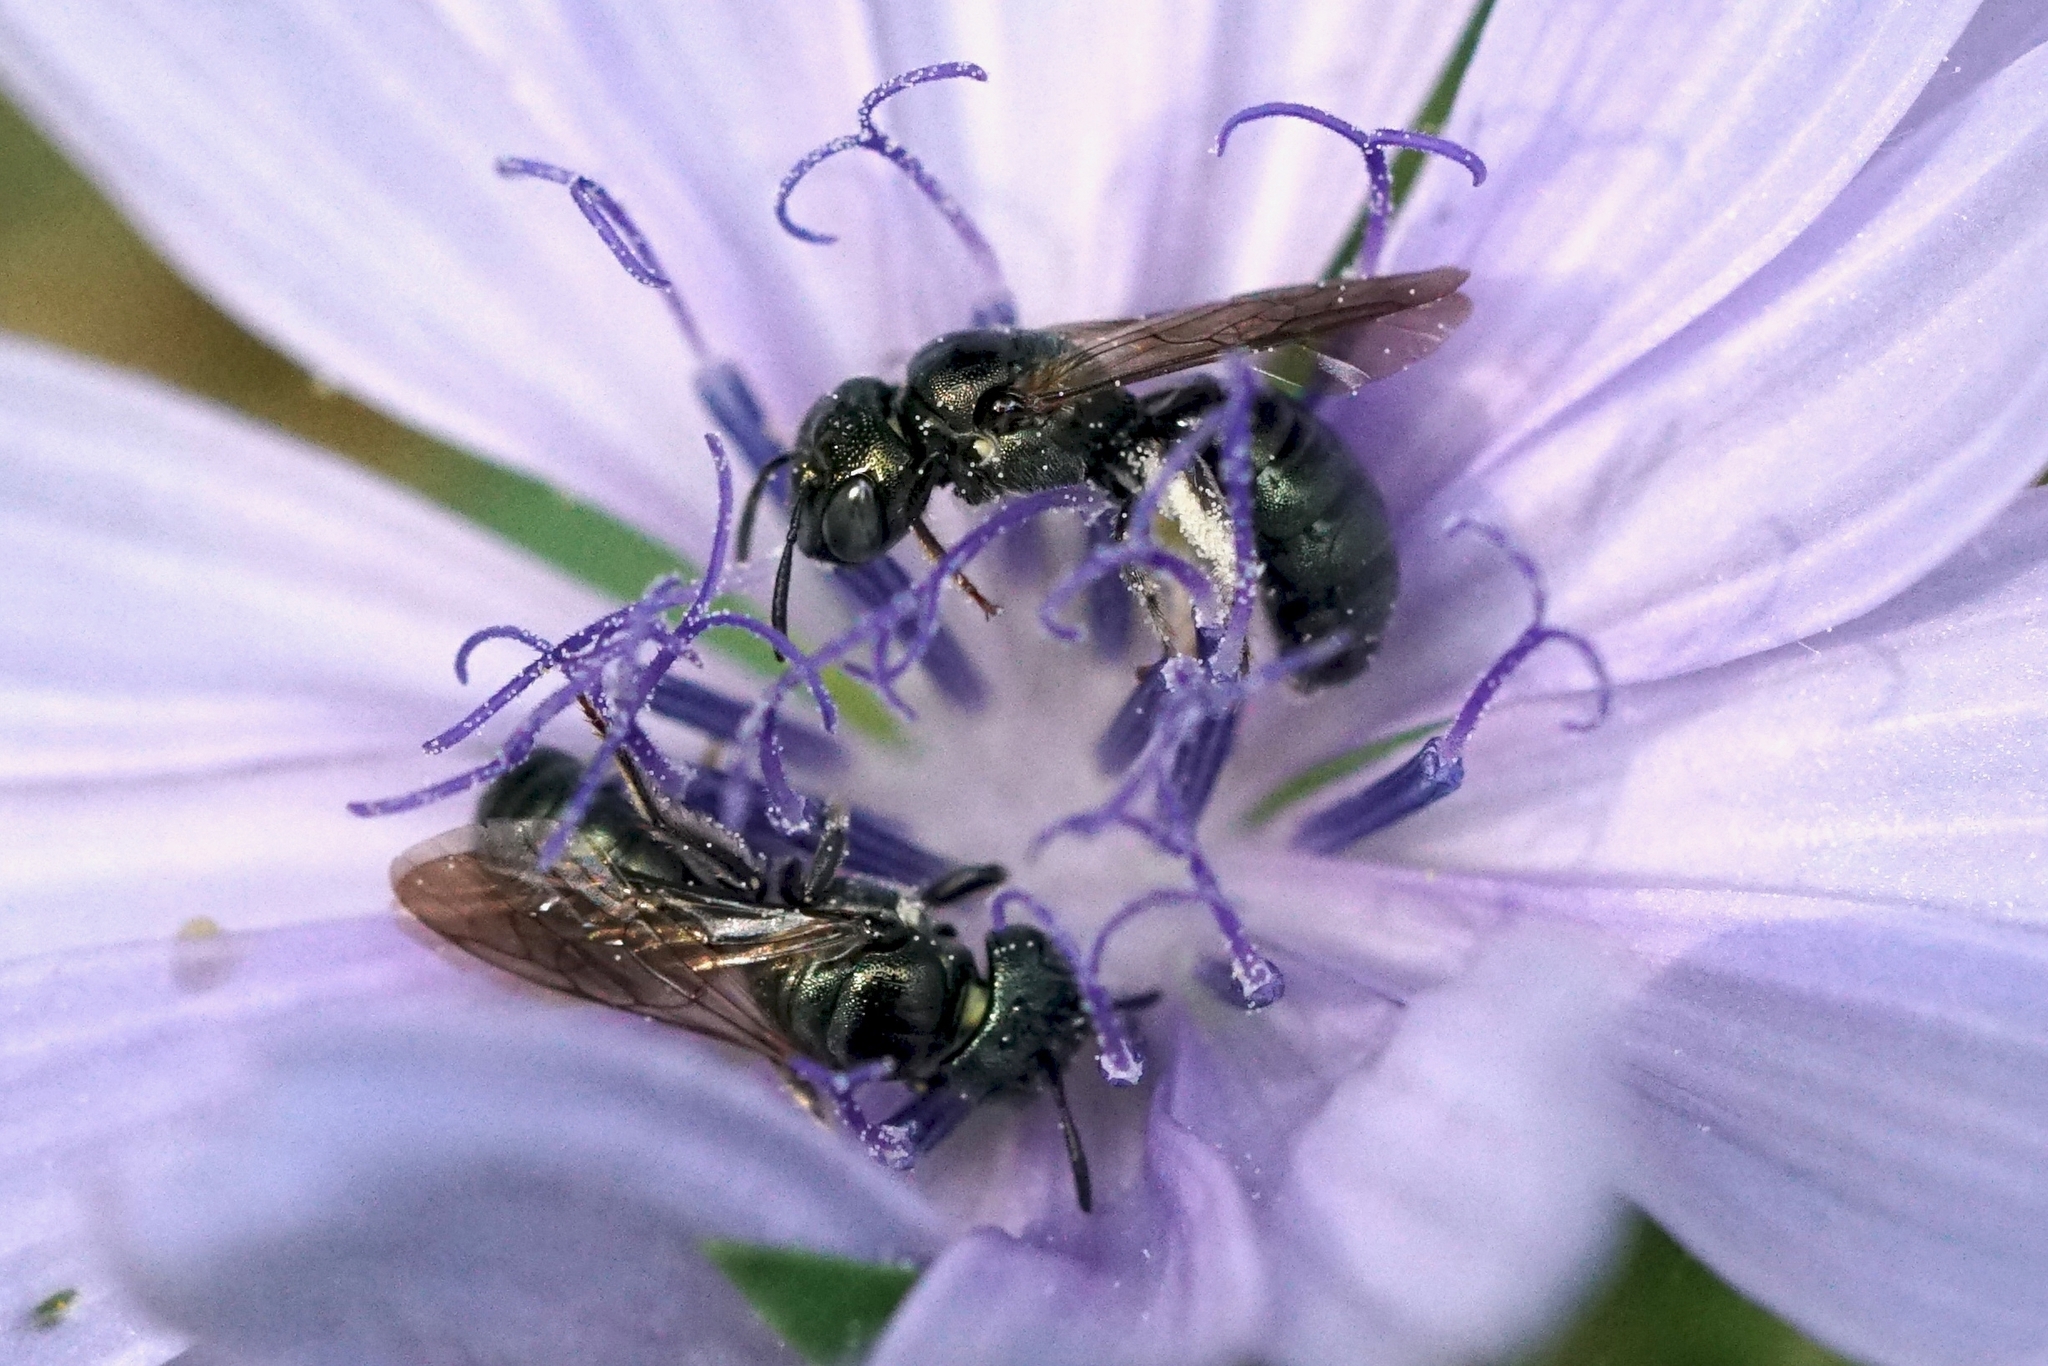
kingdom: Animalia
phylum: Arthropoda
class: Insecta
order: Hymenoptera
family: Apidae
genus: Zadontomerus
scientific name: Zadontomerus
